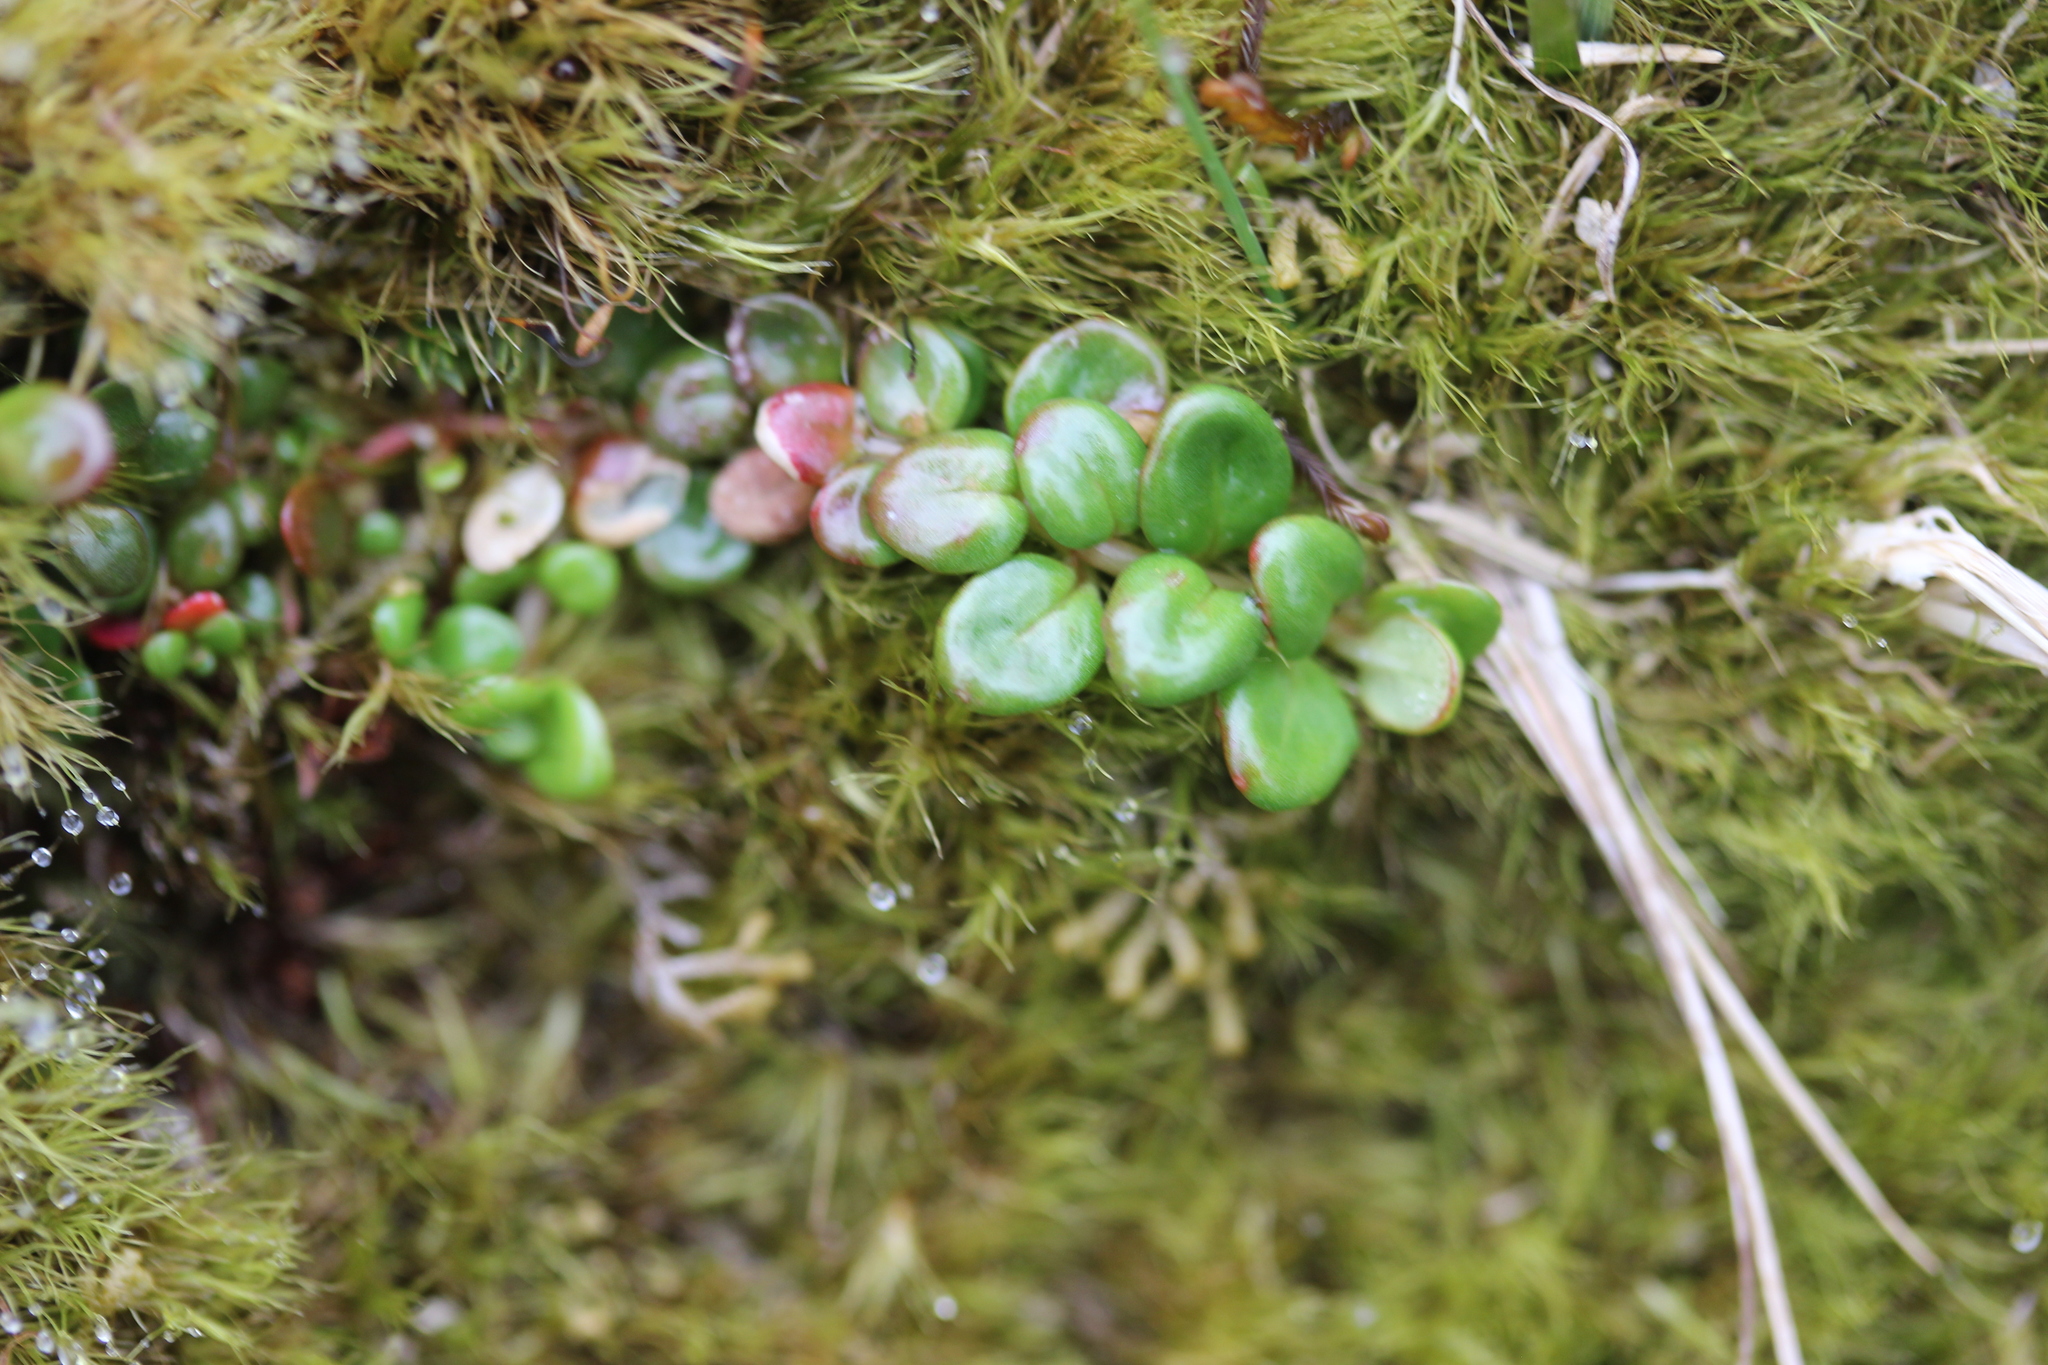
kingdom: Plantae
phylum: Tracheophyta
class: Magnoliopsida
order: Myrtales
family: Onagraceae
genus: Epilobium
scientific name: Epilobium pernitens
